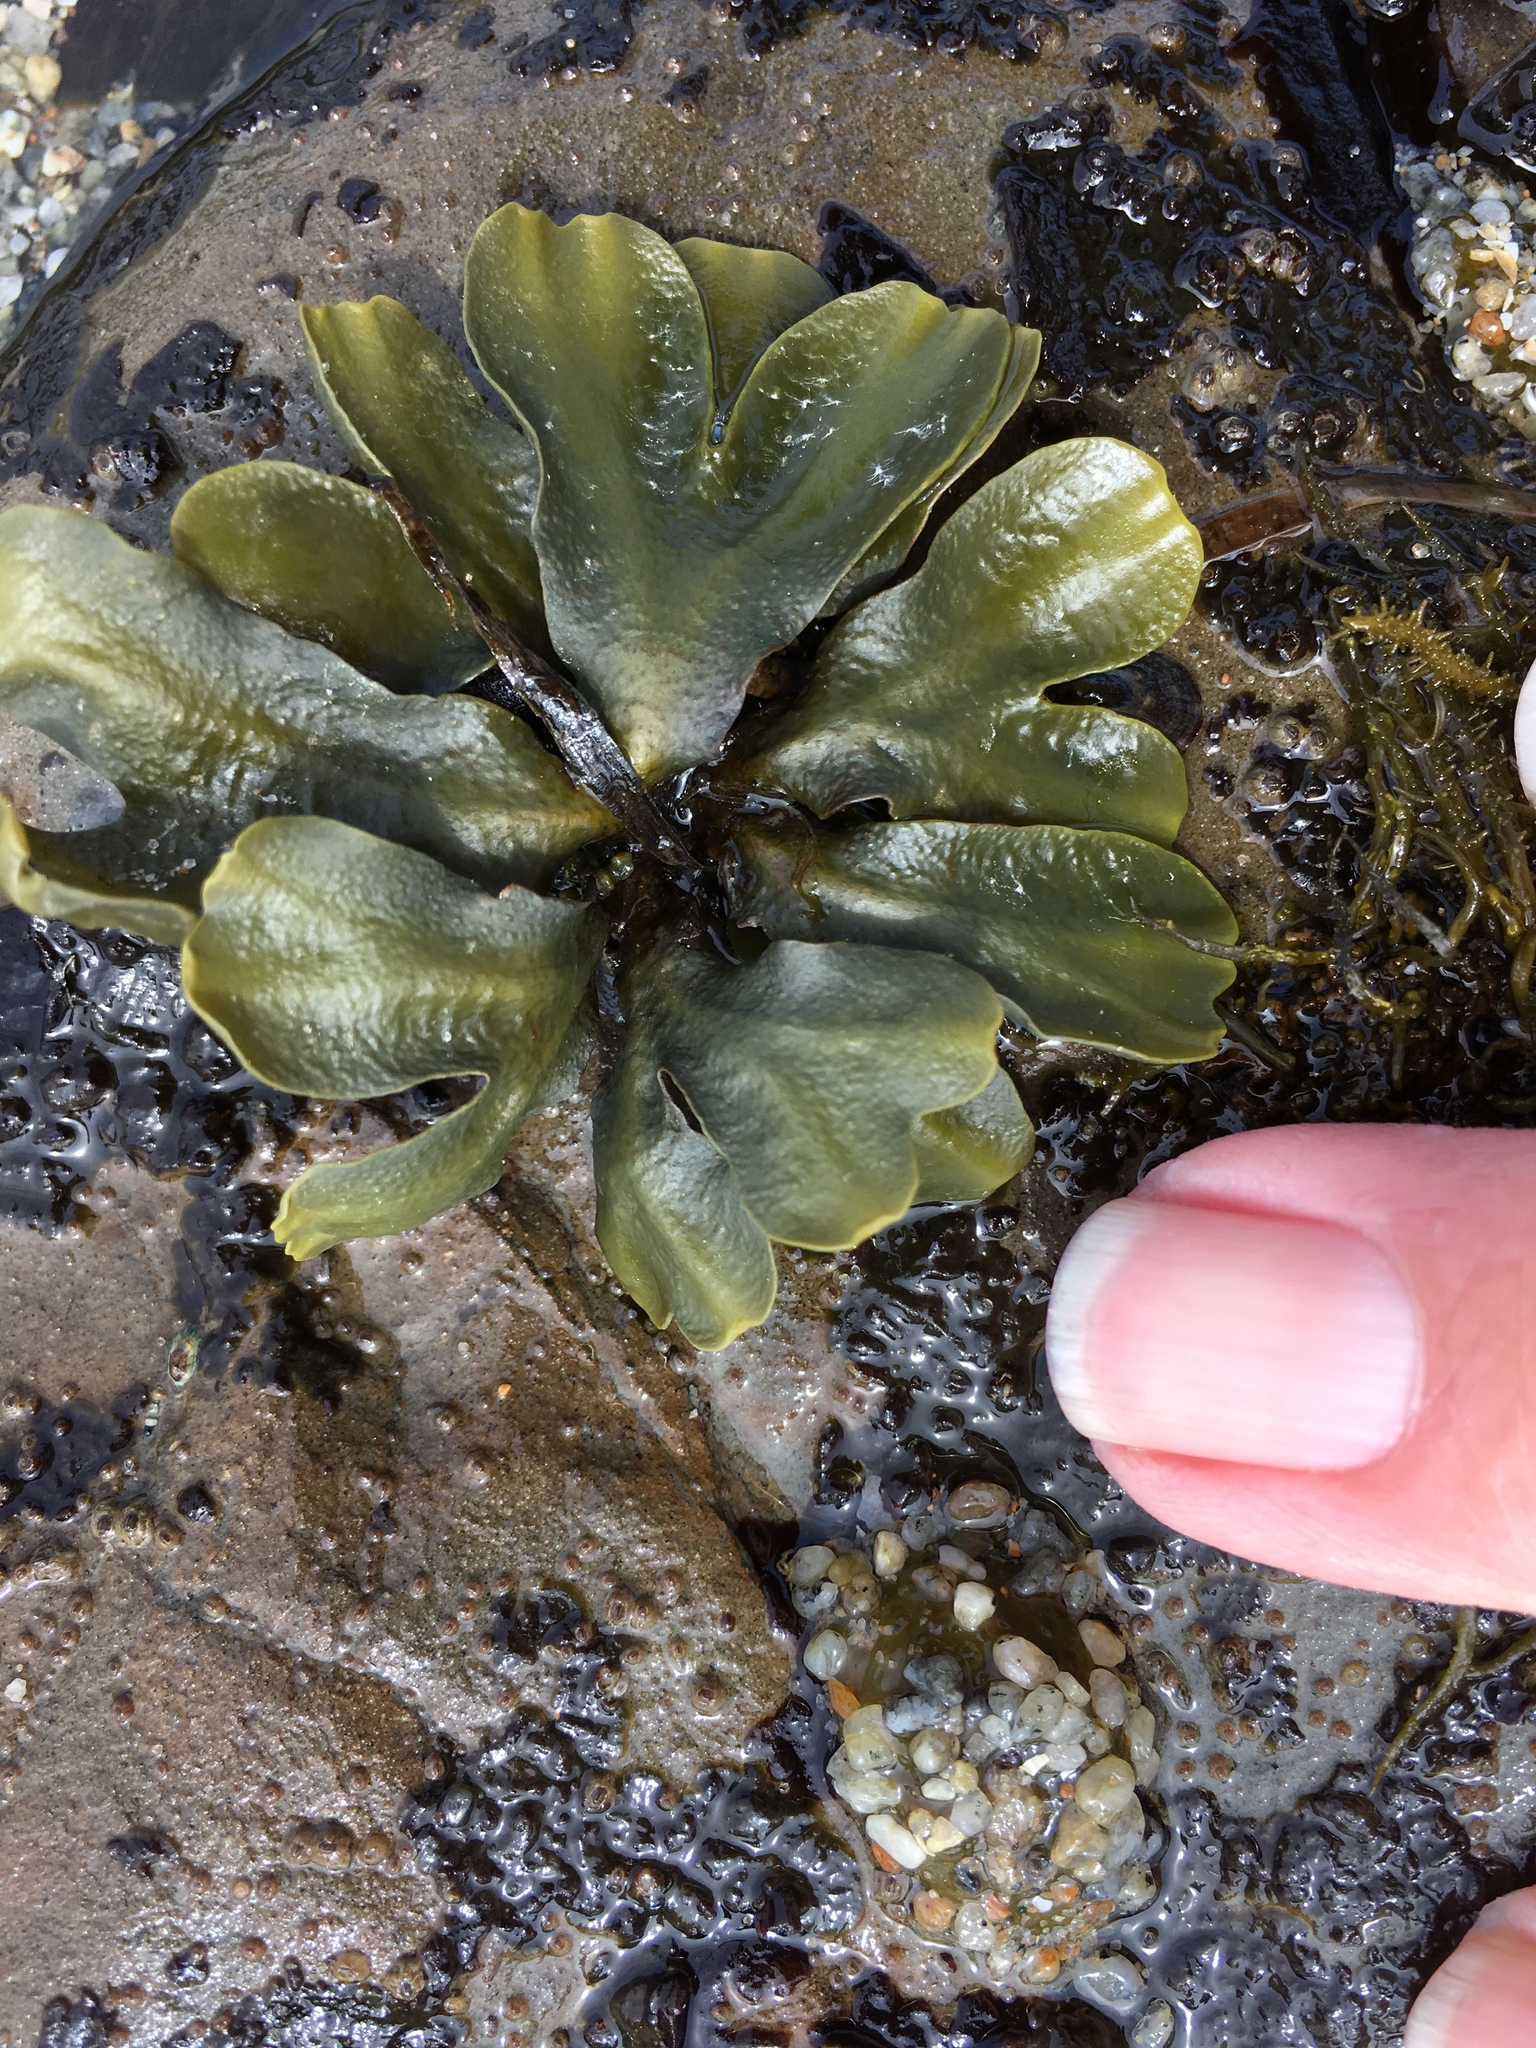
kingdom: Chromista
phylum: Ochrophyta
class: Phaeophyceae
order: Fucales
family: Fucaceae
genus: Fucus
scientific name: Fucus distichus
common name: Rockweed
